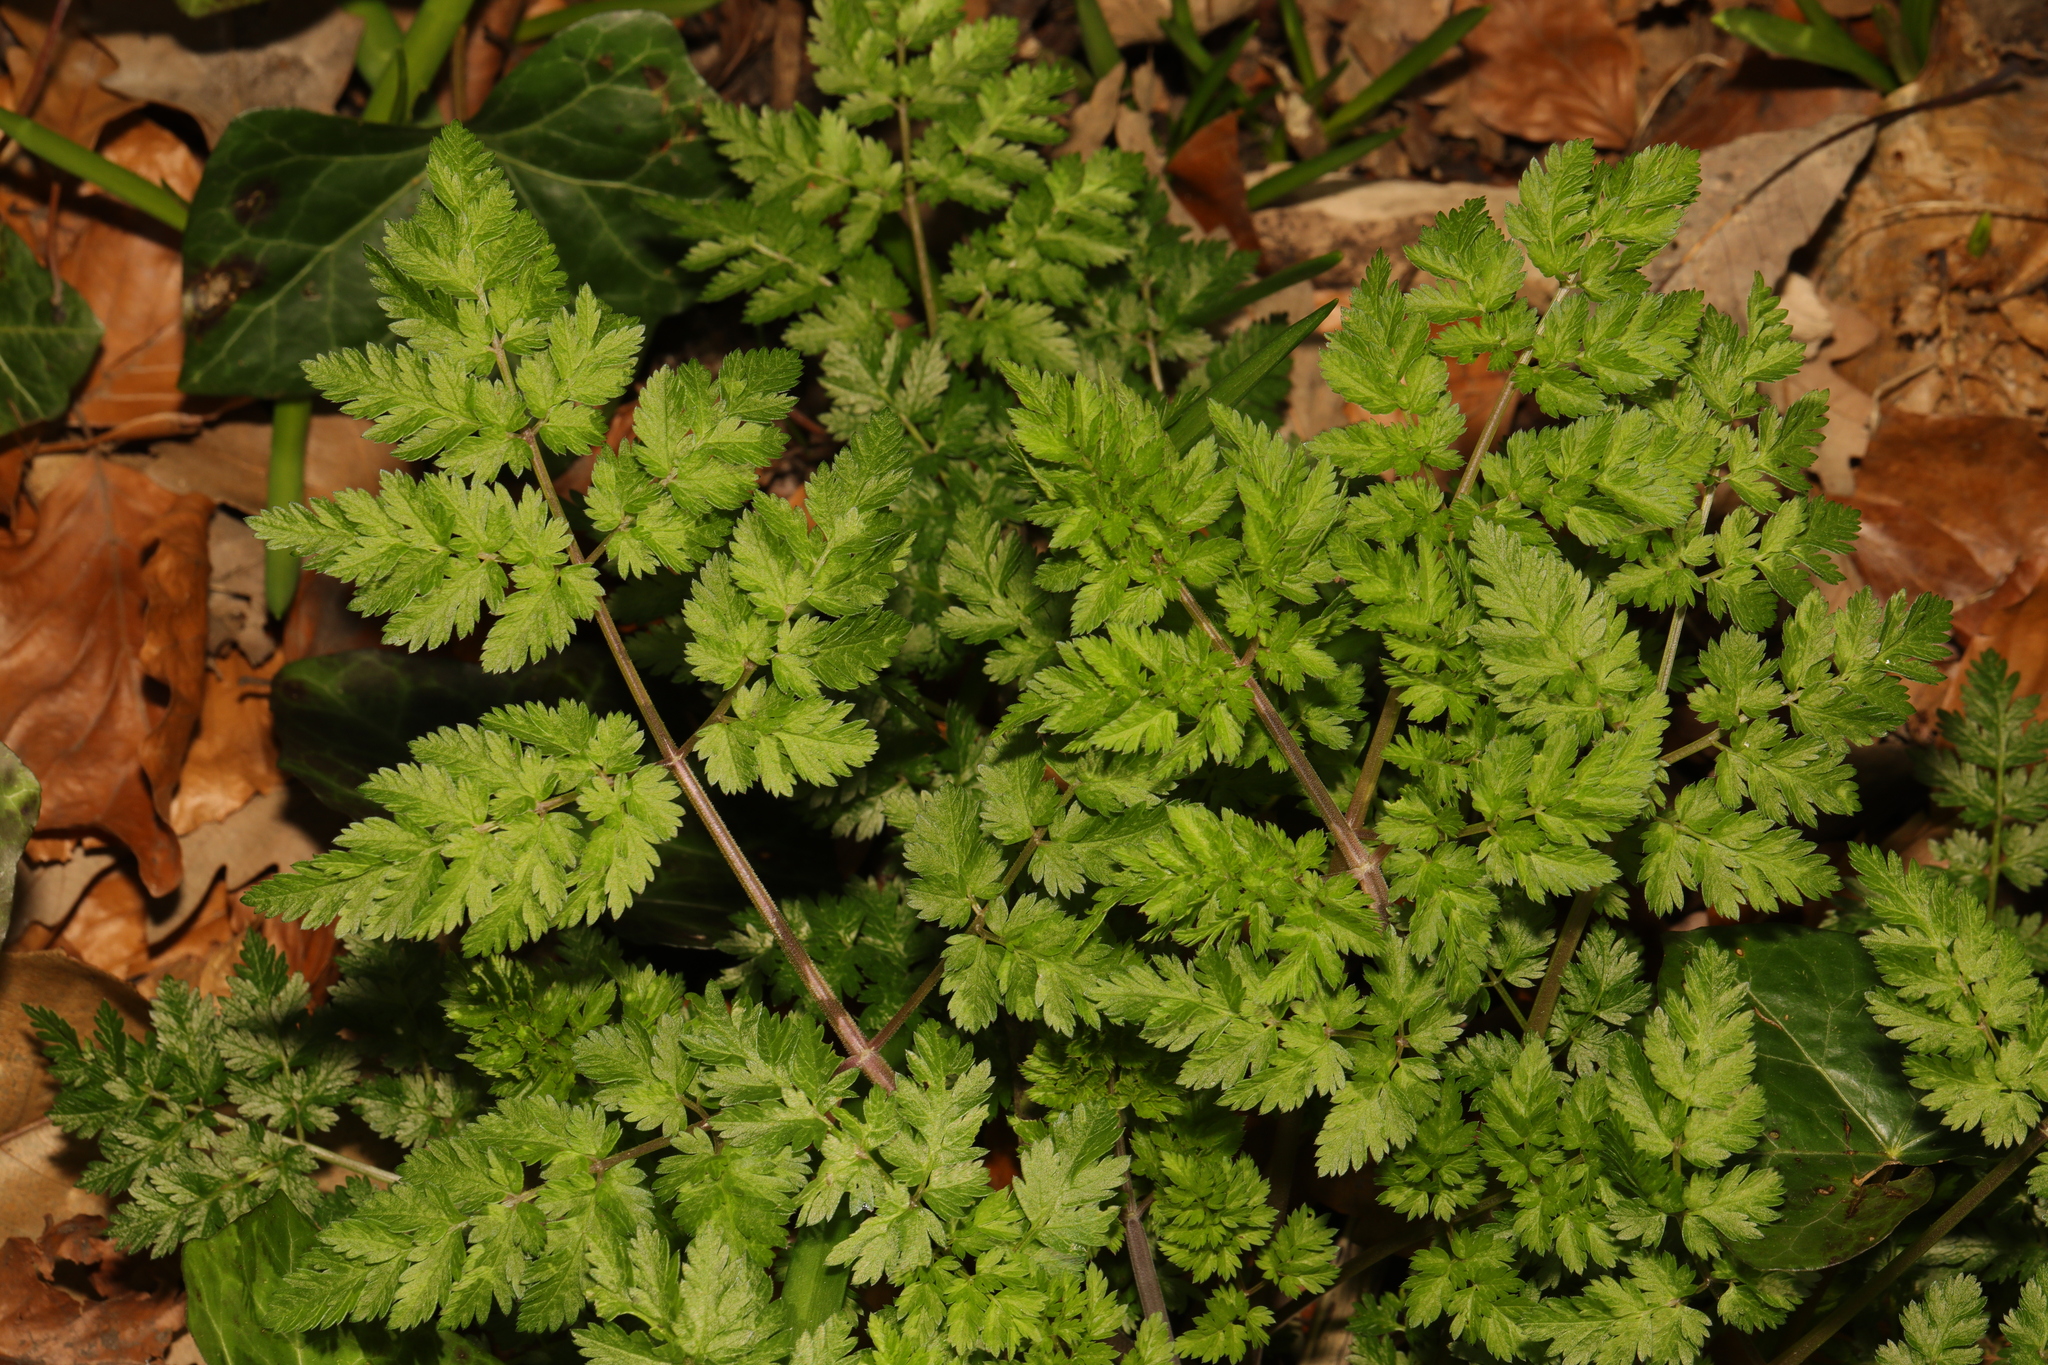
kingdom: Plantae
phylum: Tracheophyta
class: Magnoliopsida
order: Apiales
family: Apiaceae
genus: Anthriscus
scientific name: Anthriscus sylvestris
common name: Cow parsley
